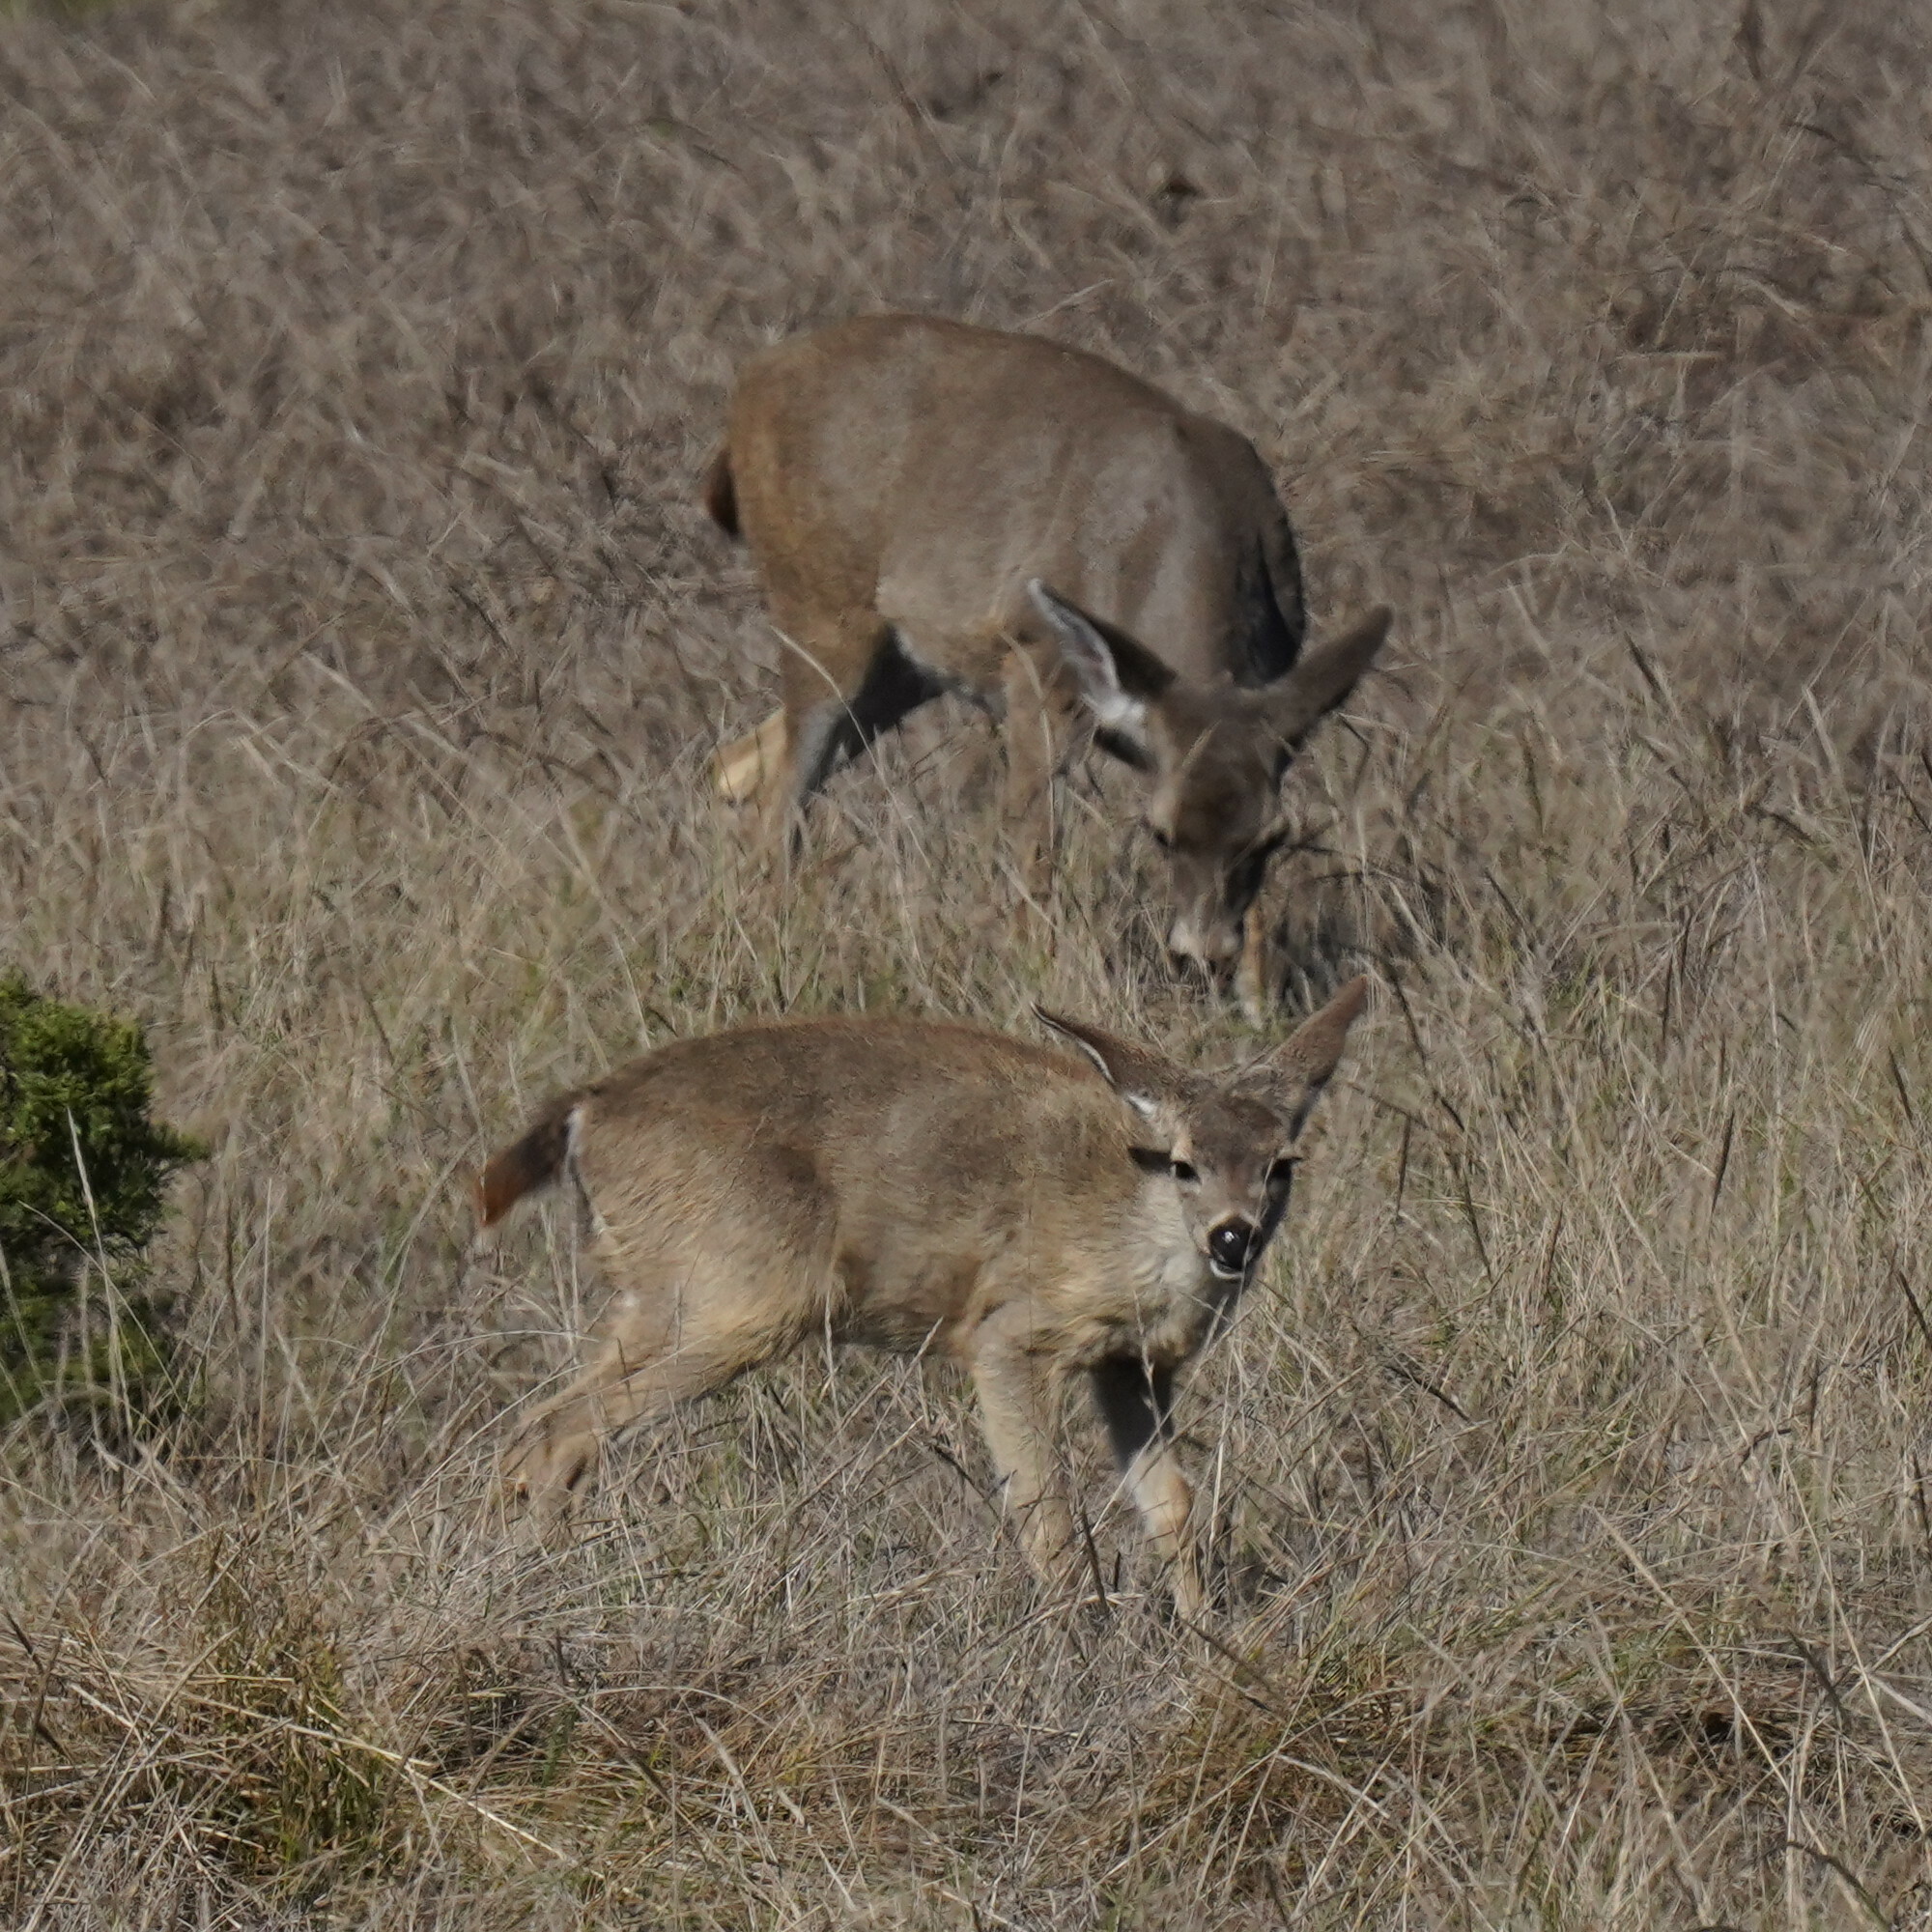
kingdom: Animalia
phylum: Chordata
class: Mammalia
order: Artiodactyla
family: Cervidae
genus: Odocoileus
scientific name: Odocoileus hemionus
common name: Mule deer
